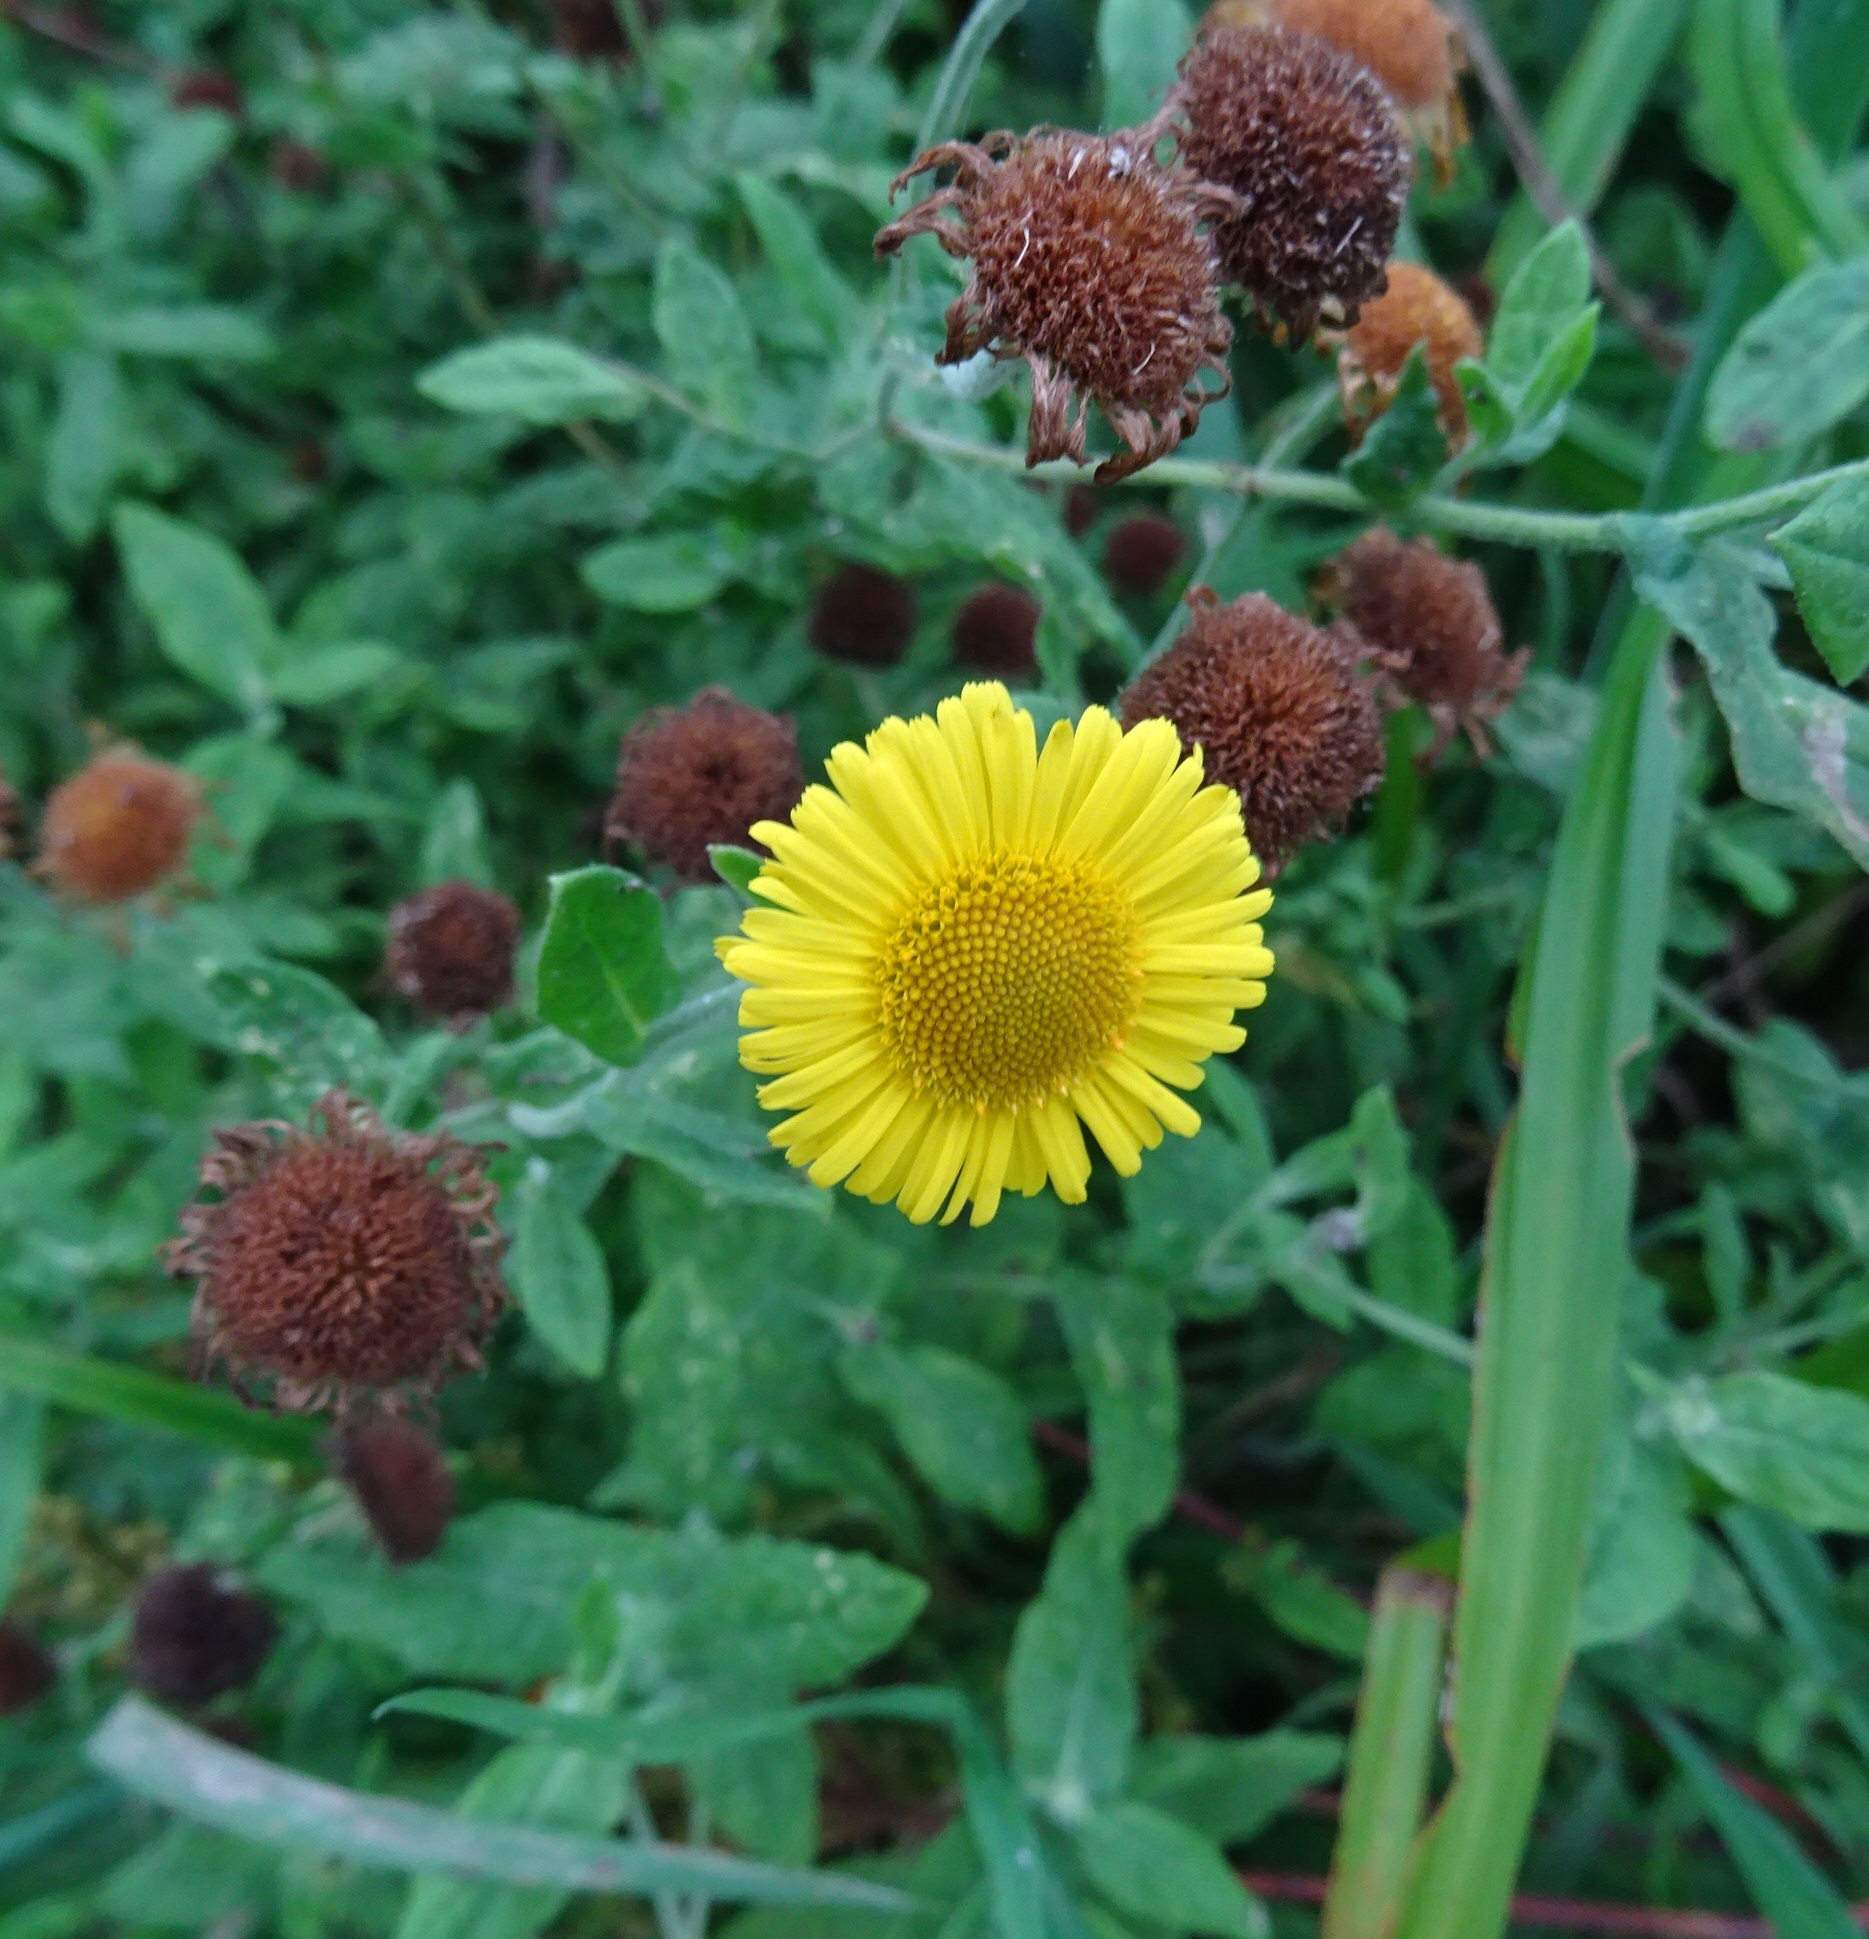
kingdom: Plantae
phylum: Tracheophyta
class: Magnoliopsida
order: Asterales
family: Asteraceae
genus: Pulicaria
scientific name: Pulicaria dysenterica
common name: Common fleabane
